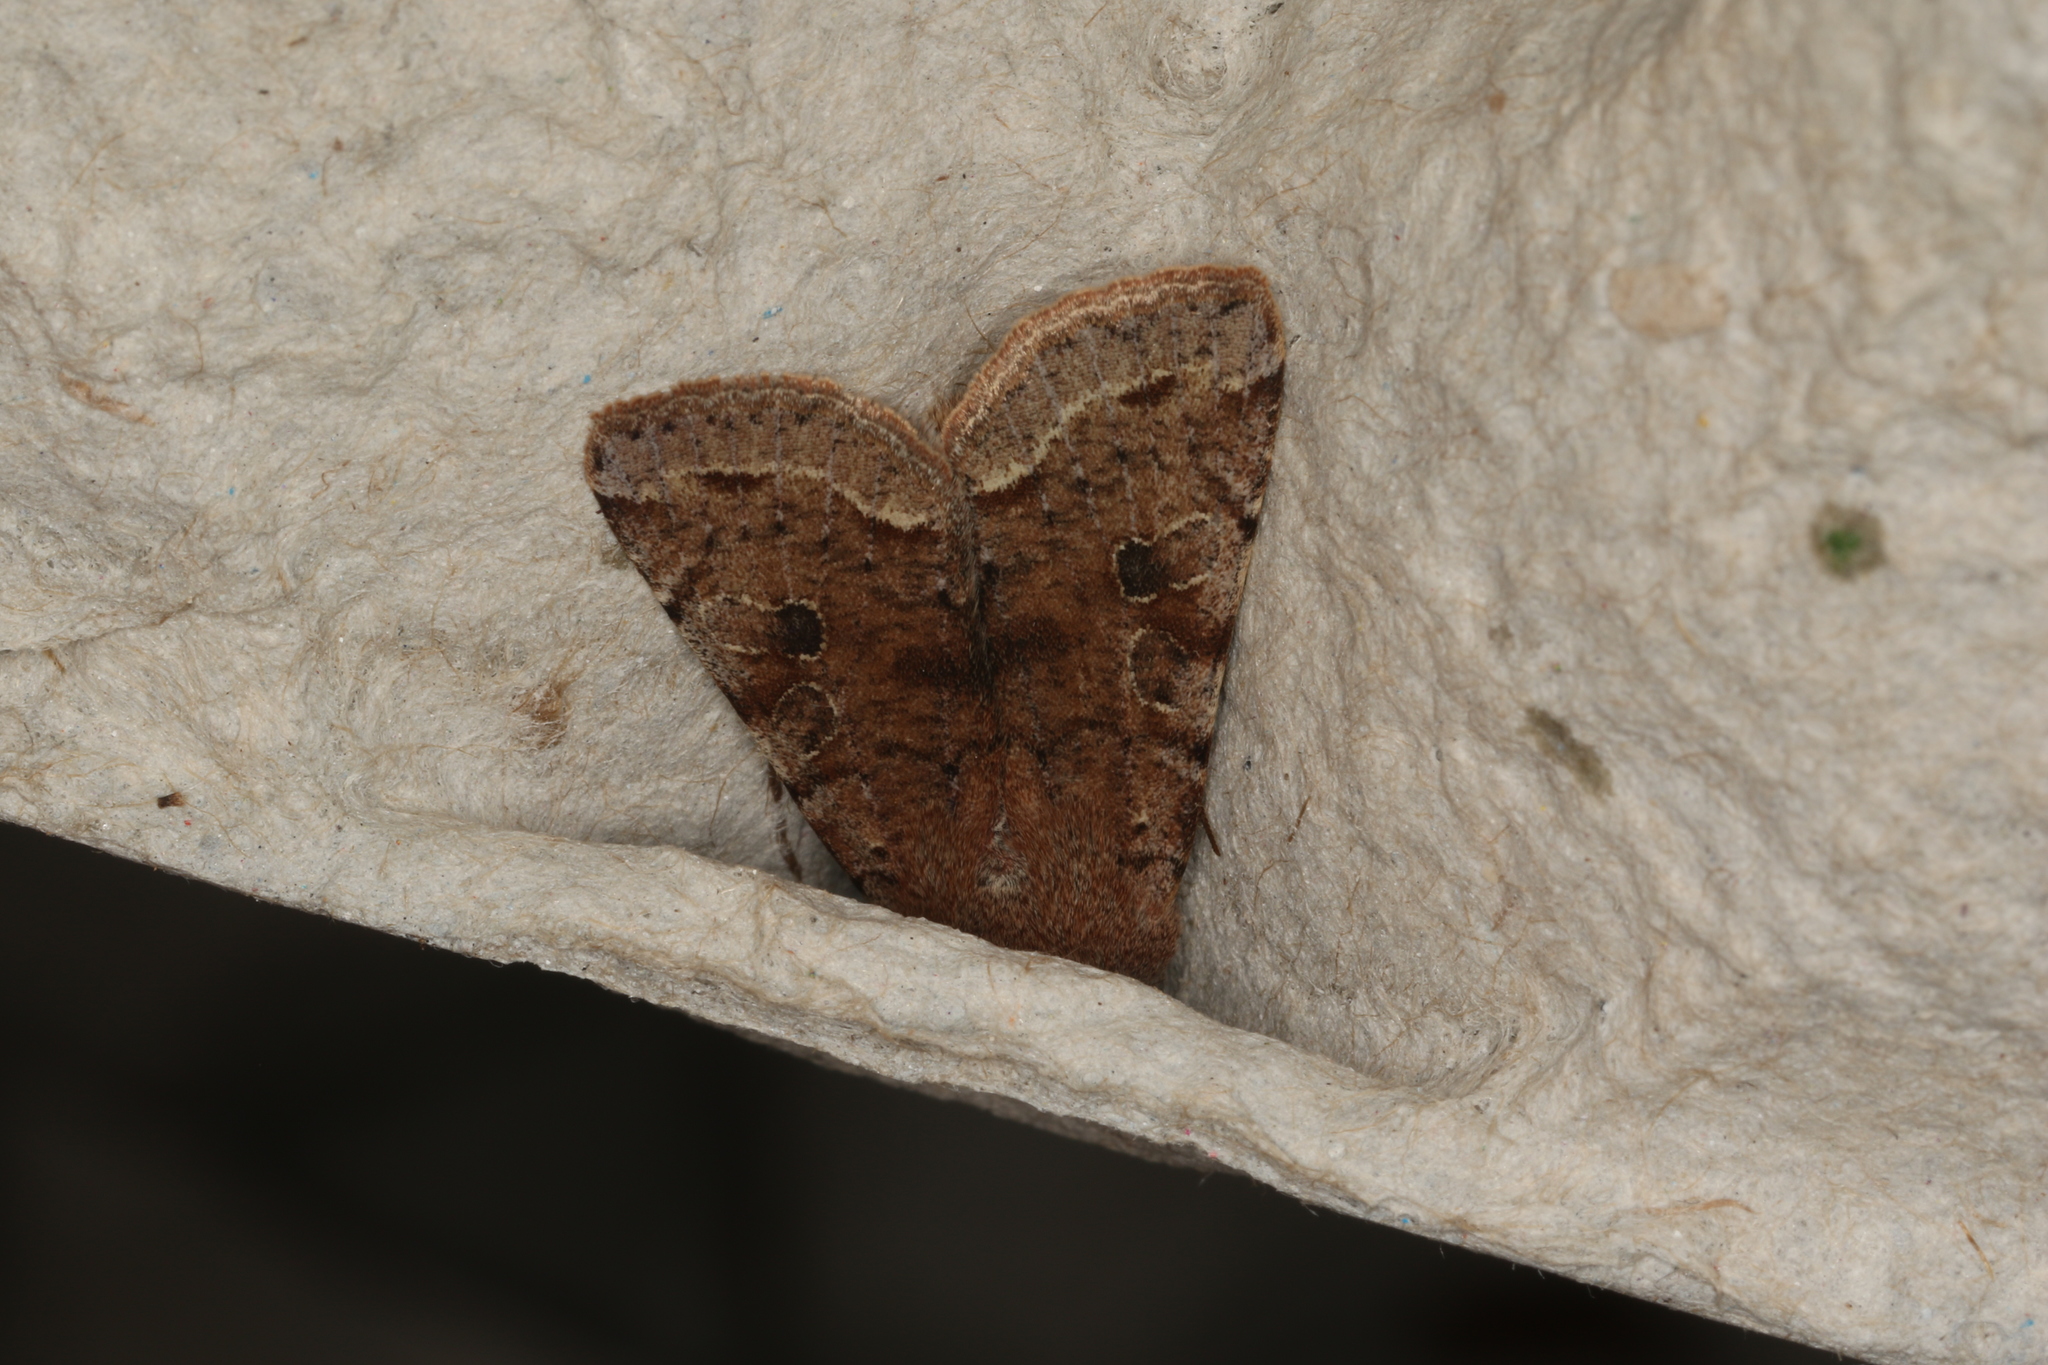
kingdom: Animalia
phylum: Arthropoda
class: Insecta
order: Lepidoptera
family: Noctuidae
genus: Orthosia
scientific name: Orthosia incerta
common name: Clouded drab
